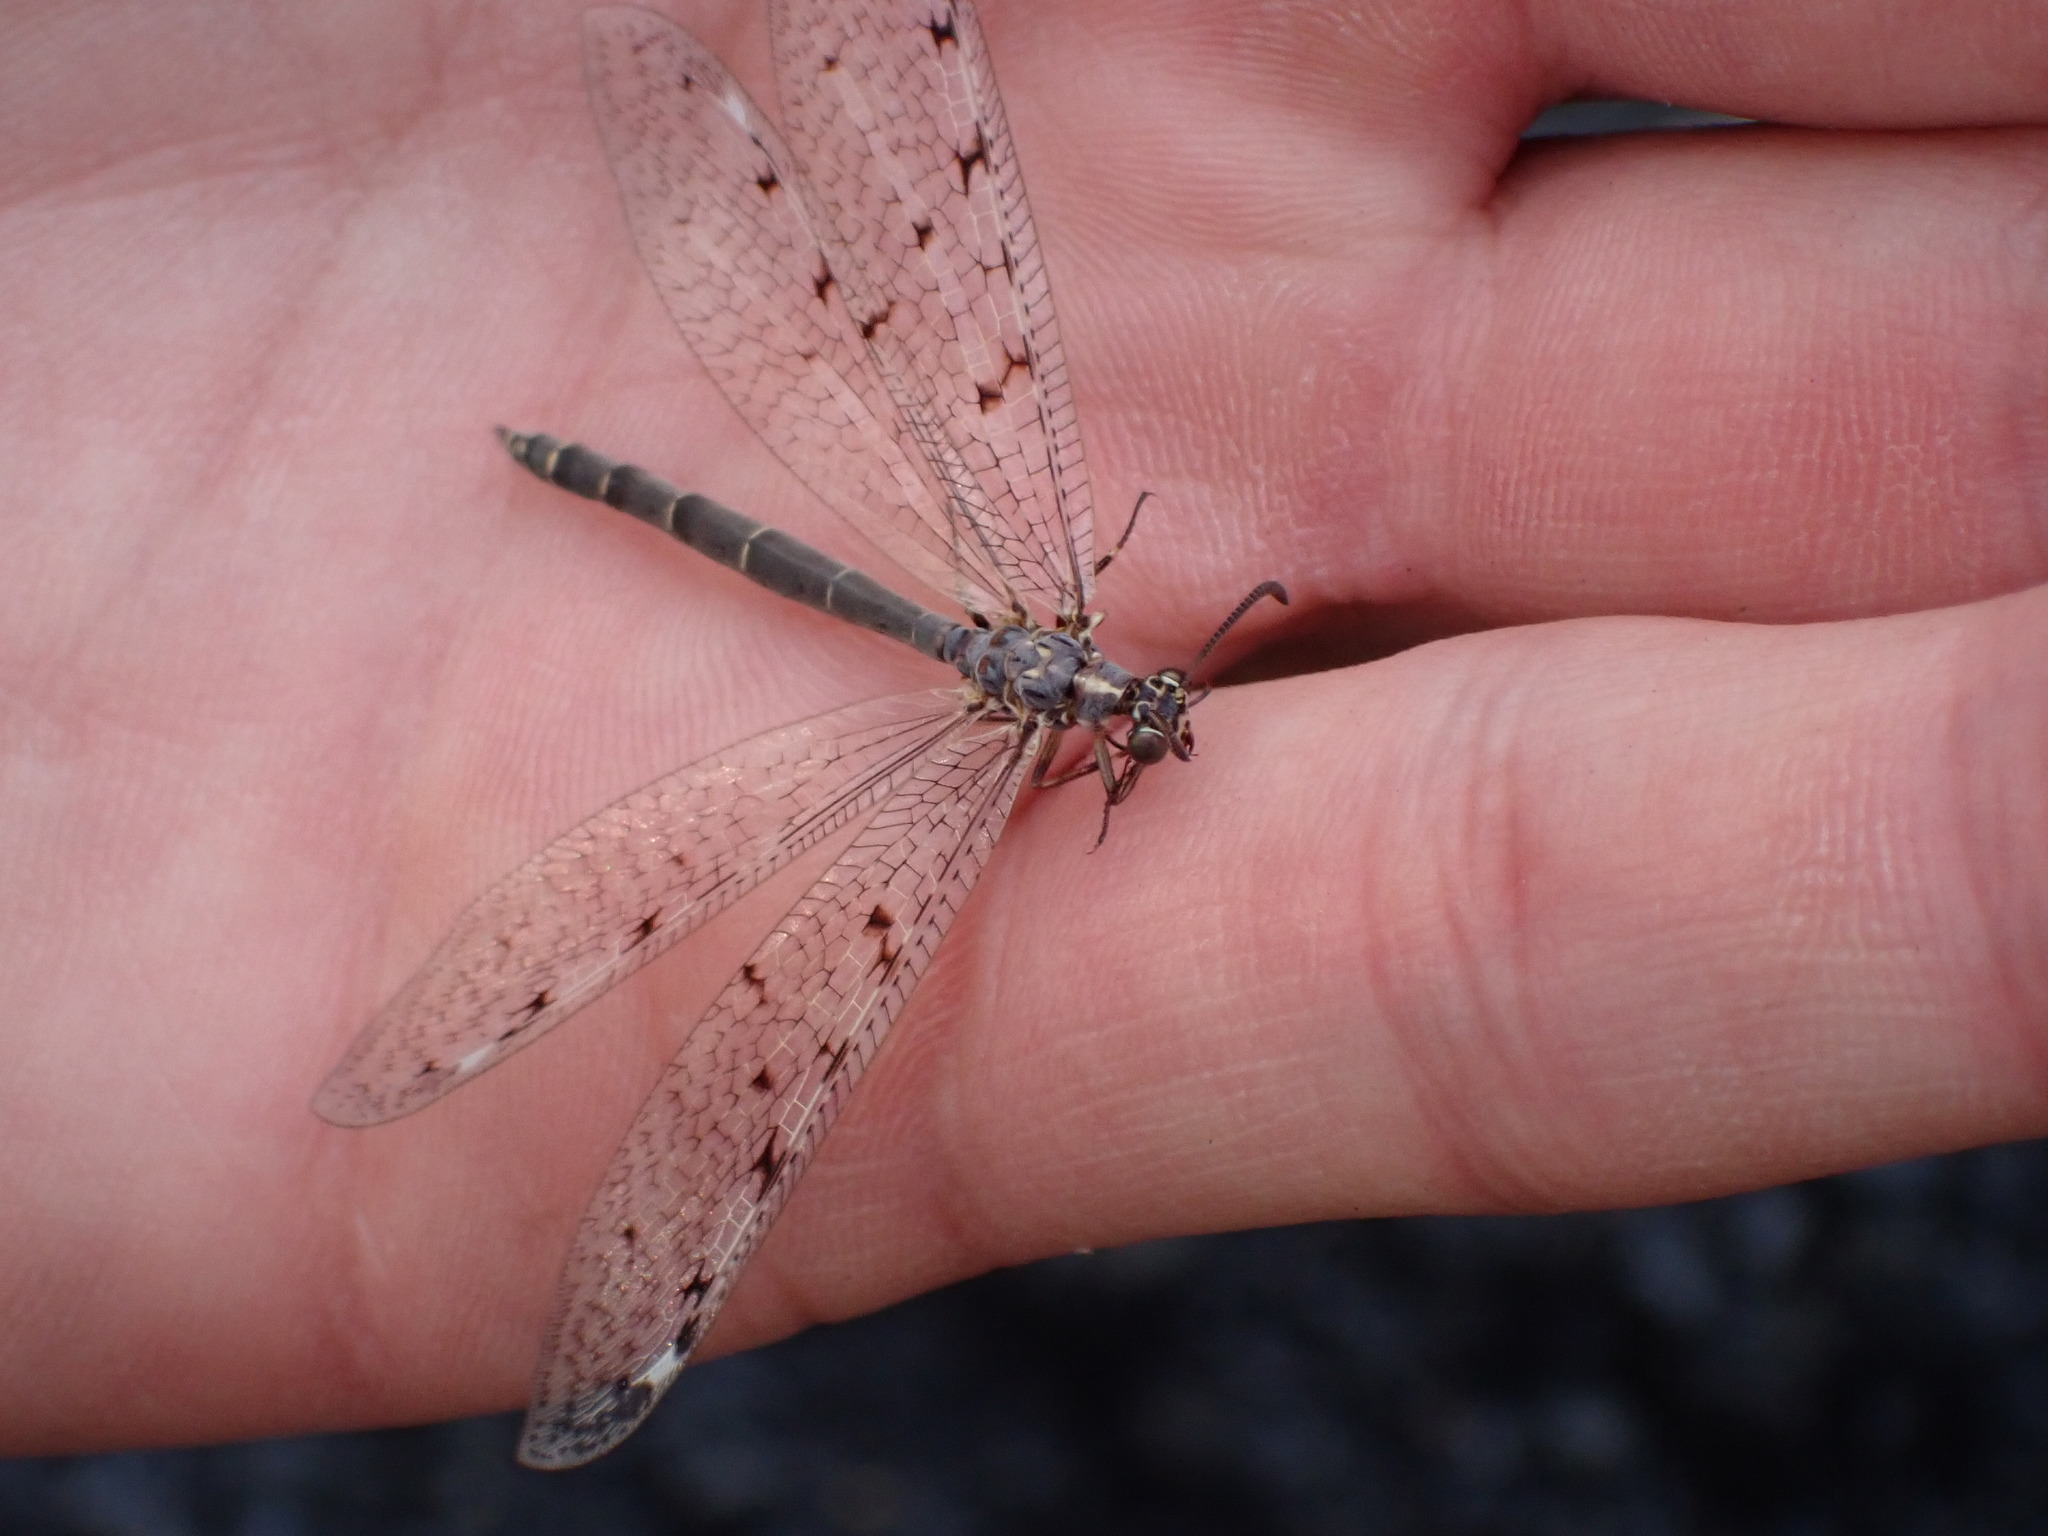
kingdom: Animalia
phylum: Arthropoda
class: Insecta
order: Neuroptera
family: Myrmeleontidae
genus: Euroleon
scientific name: Euroleon nostras
